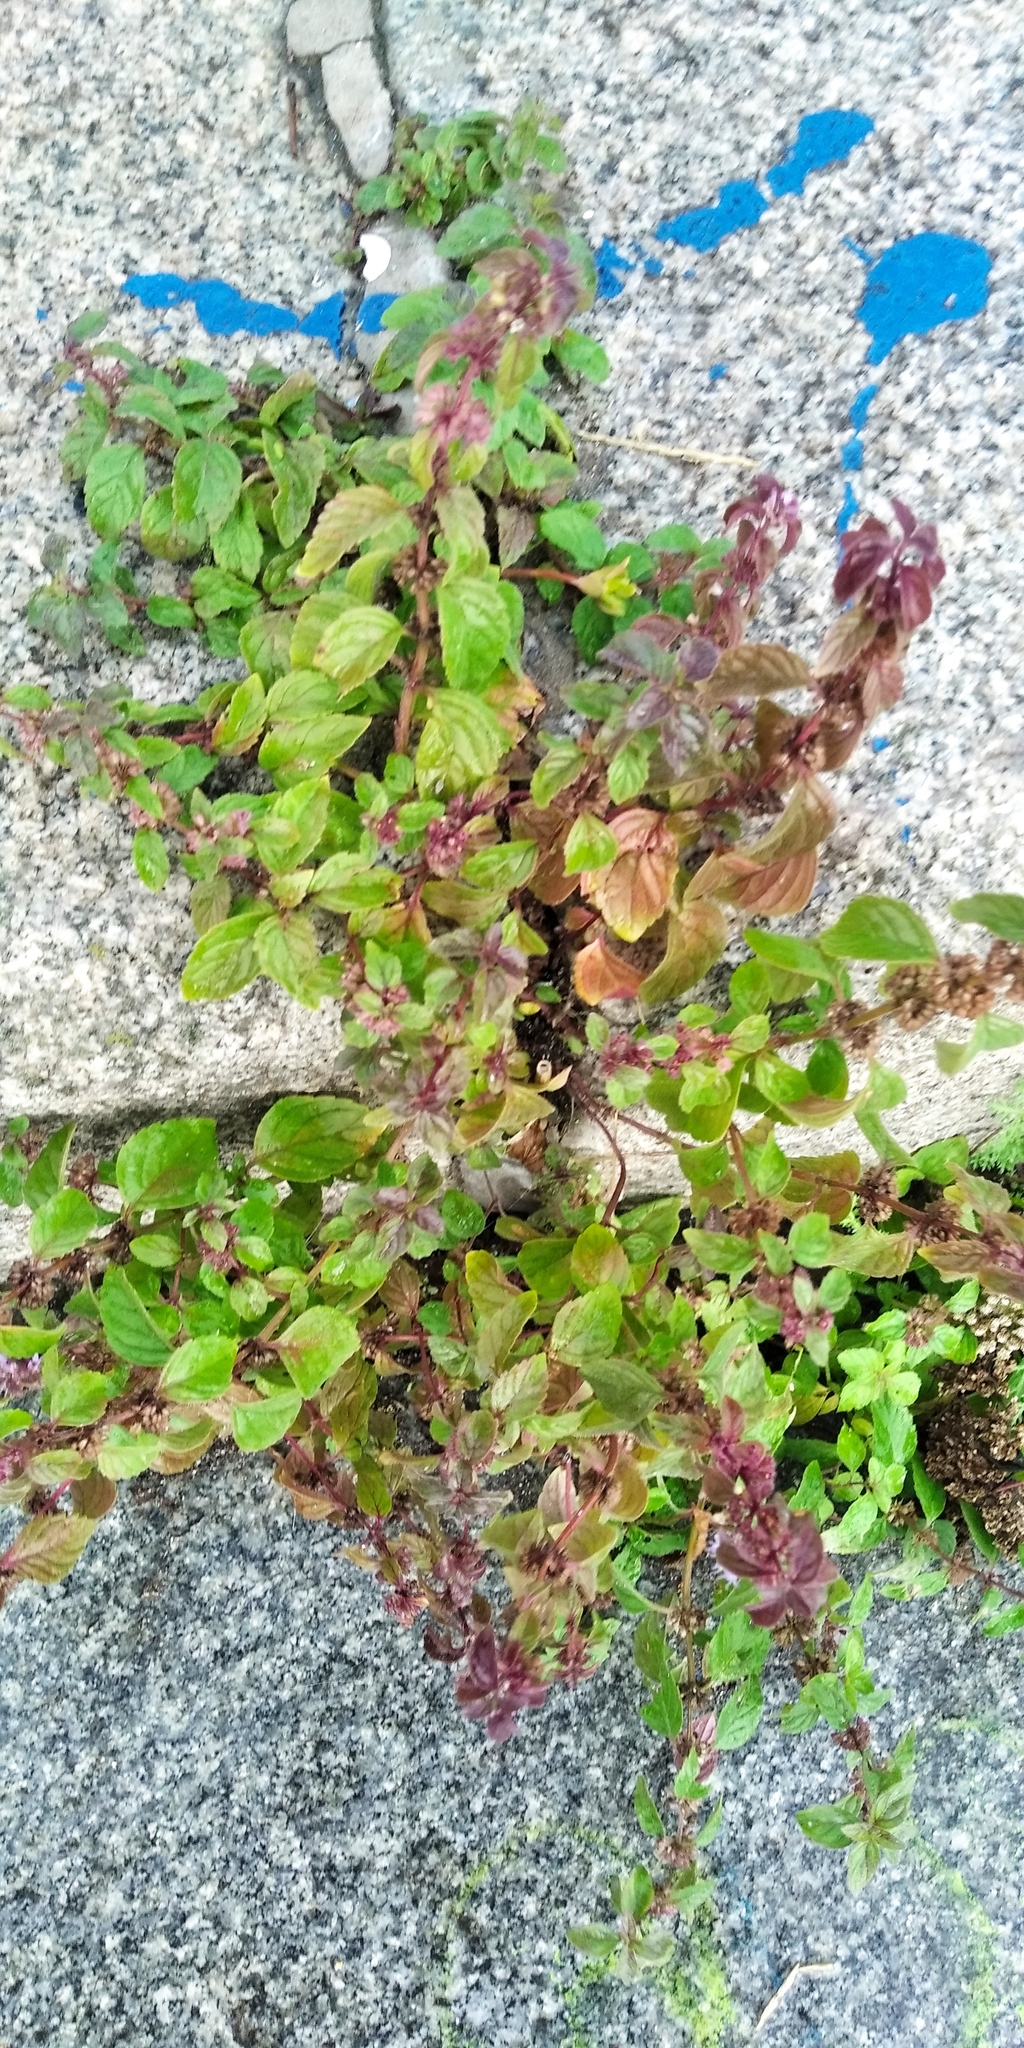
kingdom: Plantae
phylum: Tracheophyta
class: Magnoliopsida
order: Lamiales
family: Lamiaceae
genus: Mentha
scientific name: Mentha arvensis
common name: Corn mint
